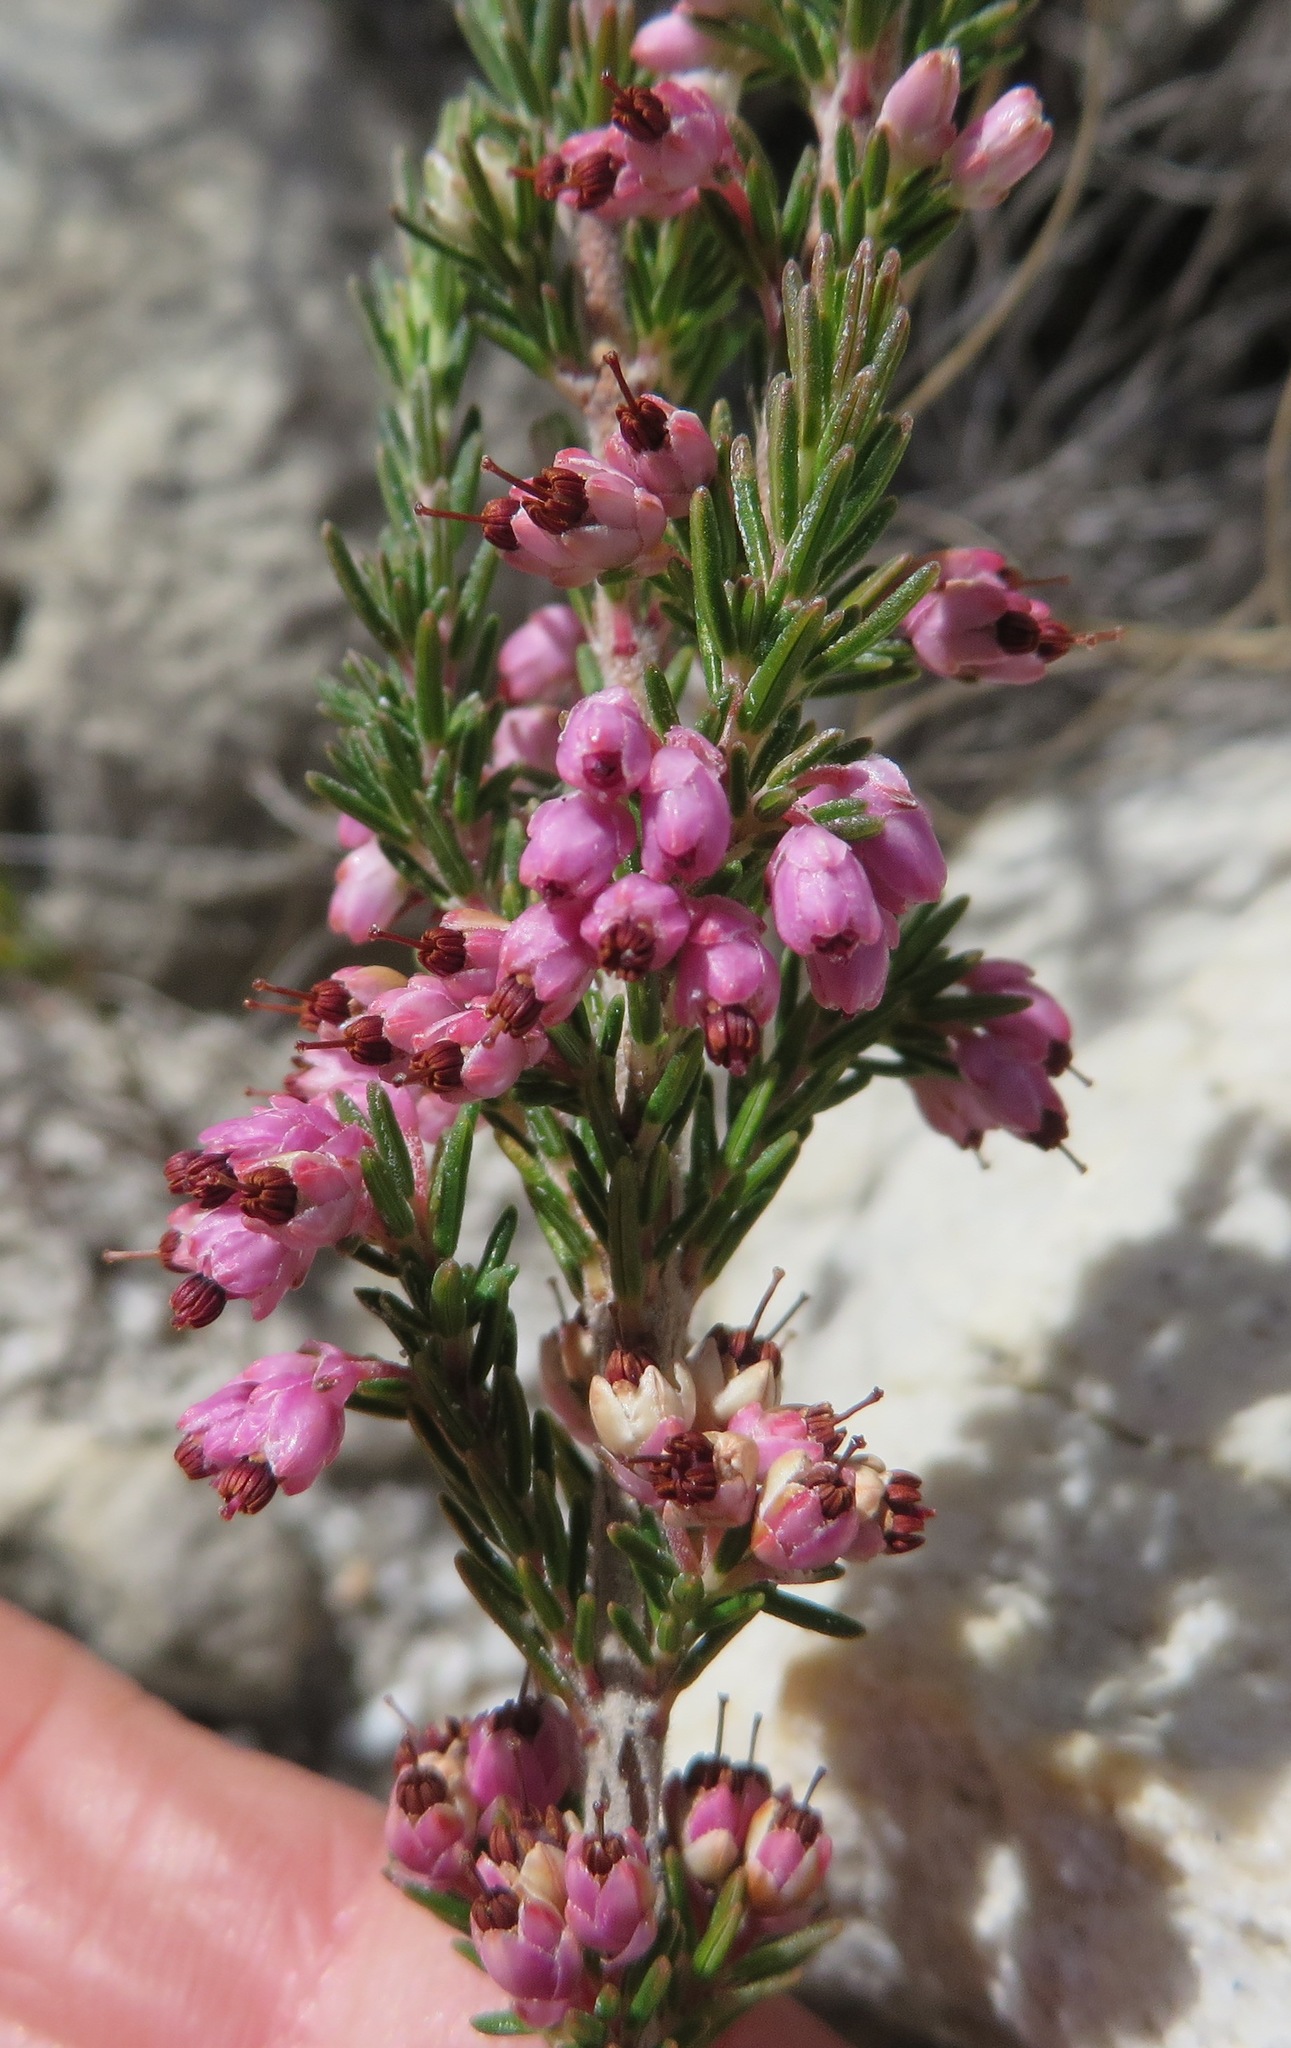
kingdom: Plantae
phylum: Tracheophyta
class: Magnoliopsida
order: Ericales
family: Ericaceae
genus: Erica
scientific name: Erica placentiflora
